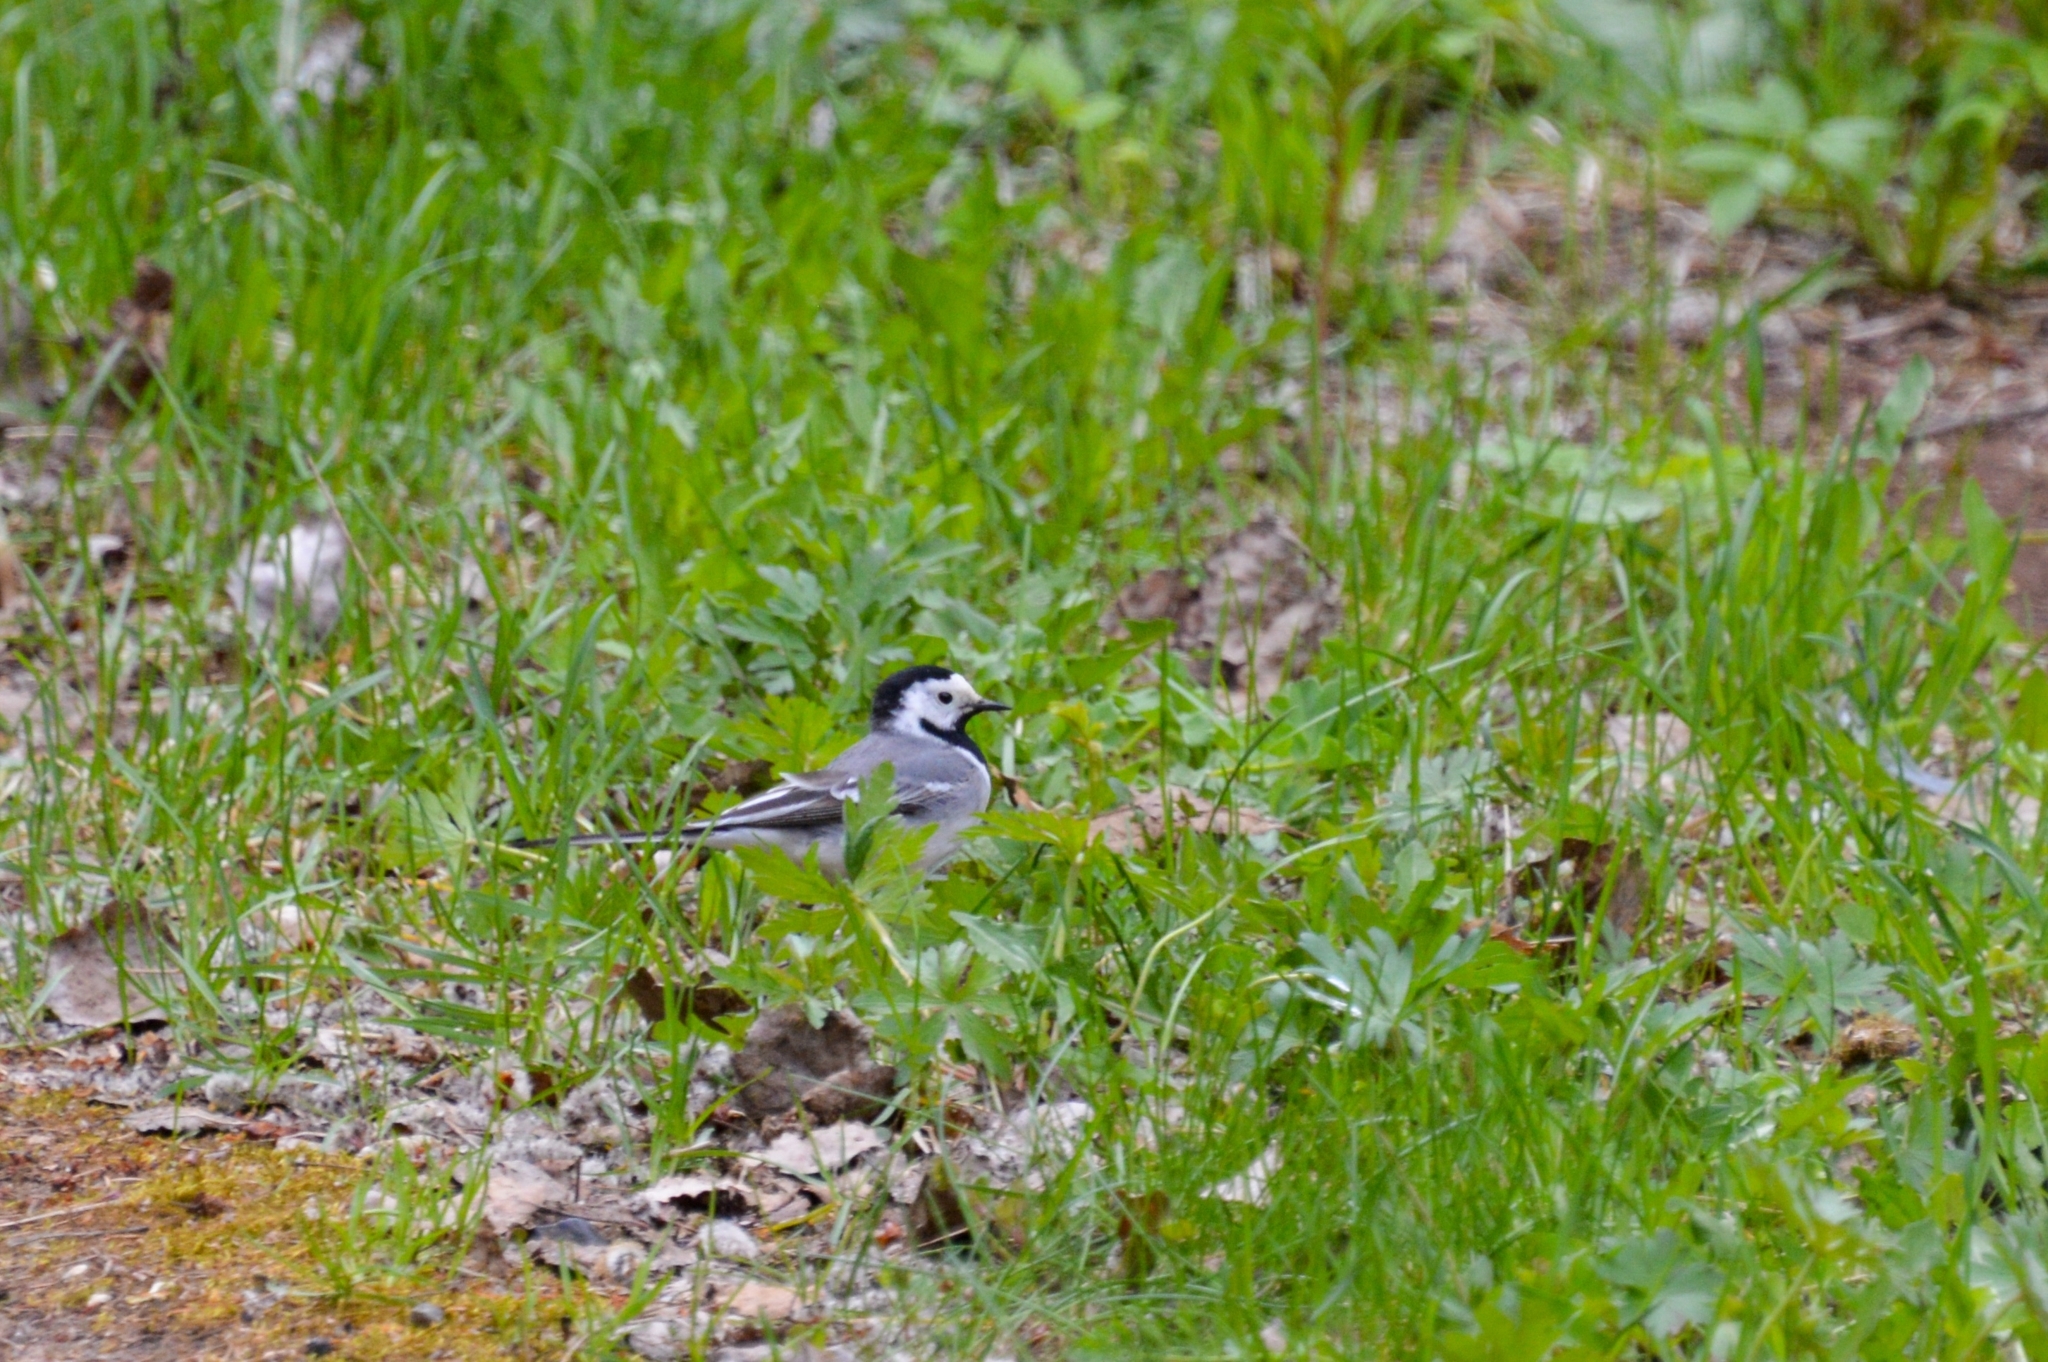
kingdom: Animalia
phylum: Chordata
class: Aves
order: Passeriformes
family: Motacillidae
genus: Motacilla
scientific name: Motacilla alba
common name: White wagtail
